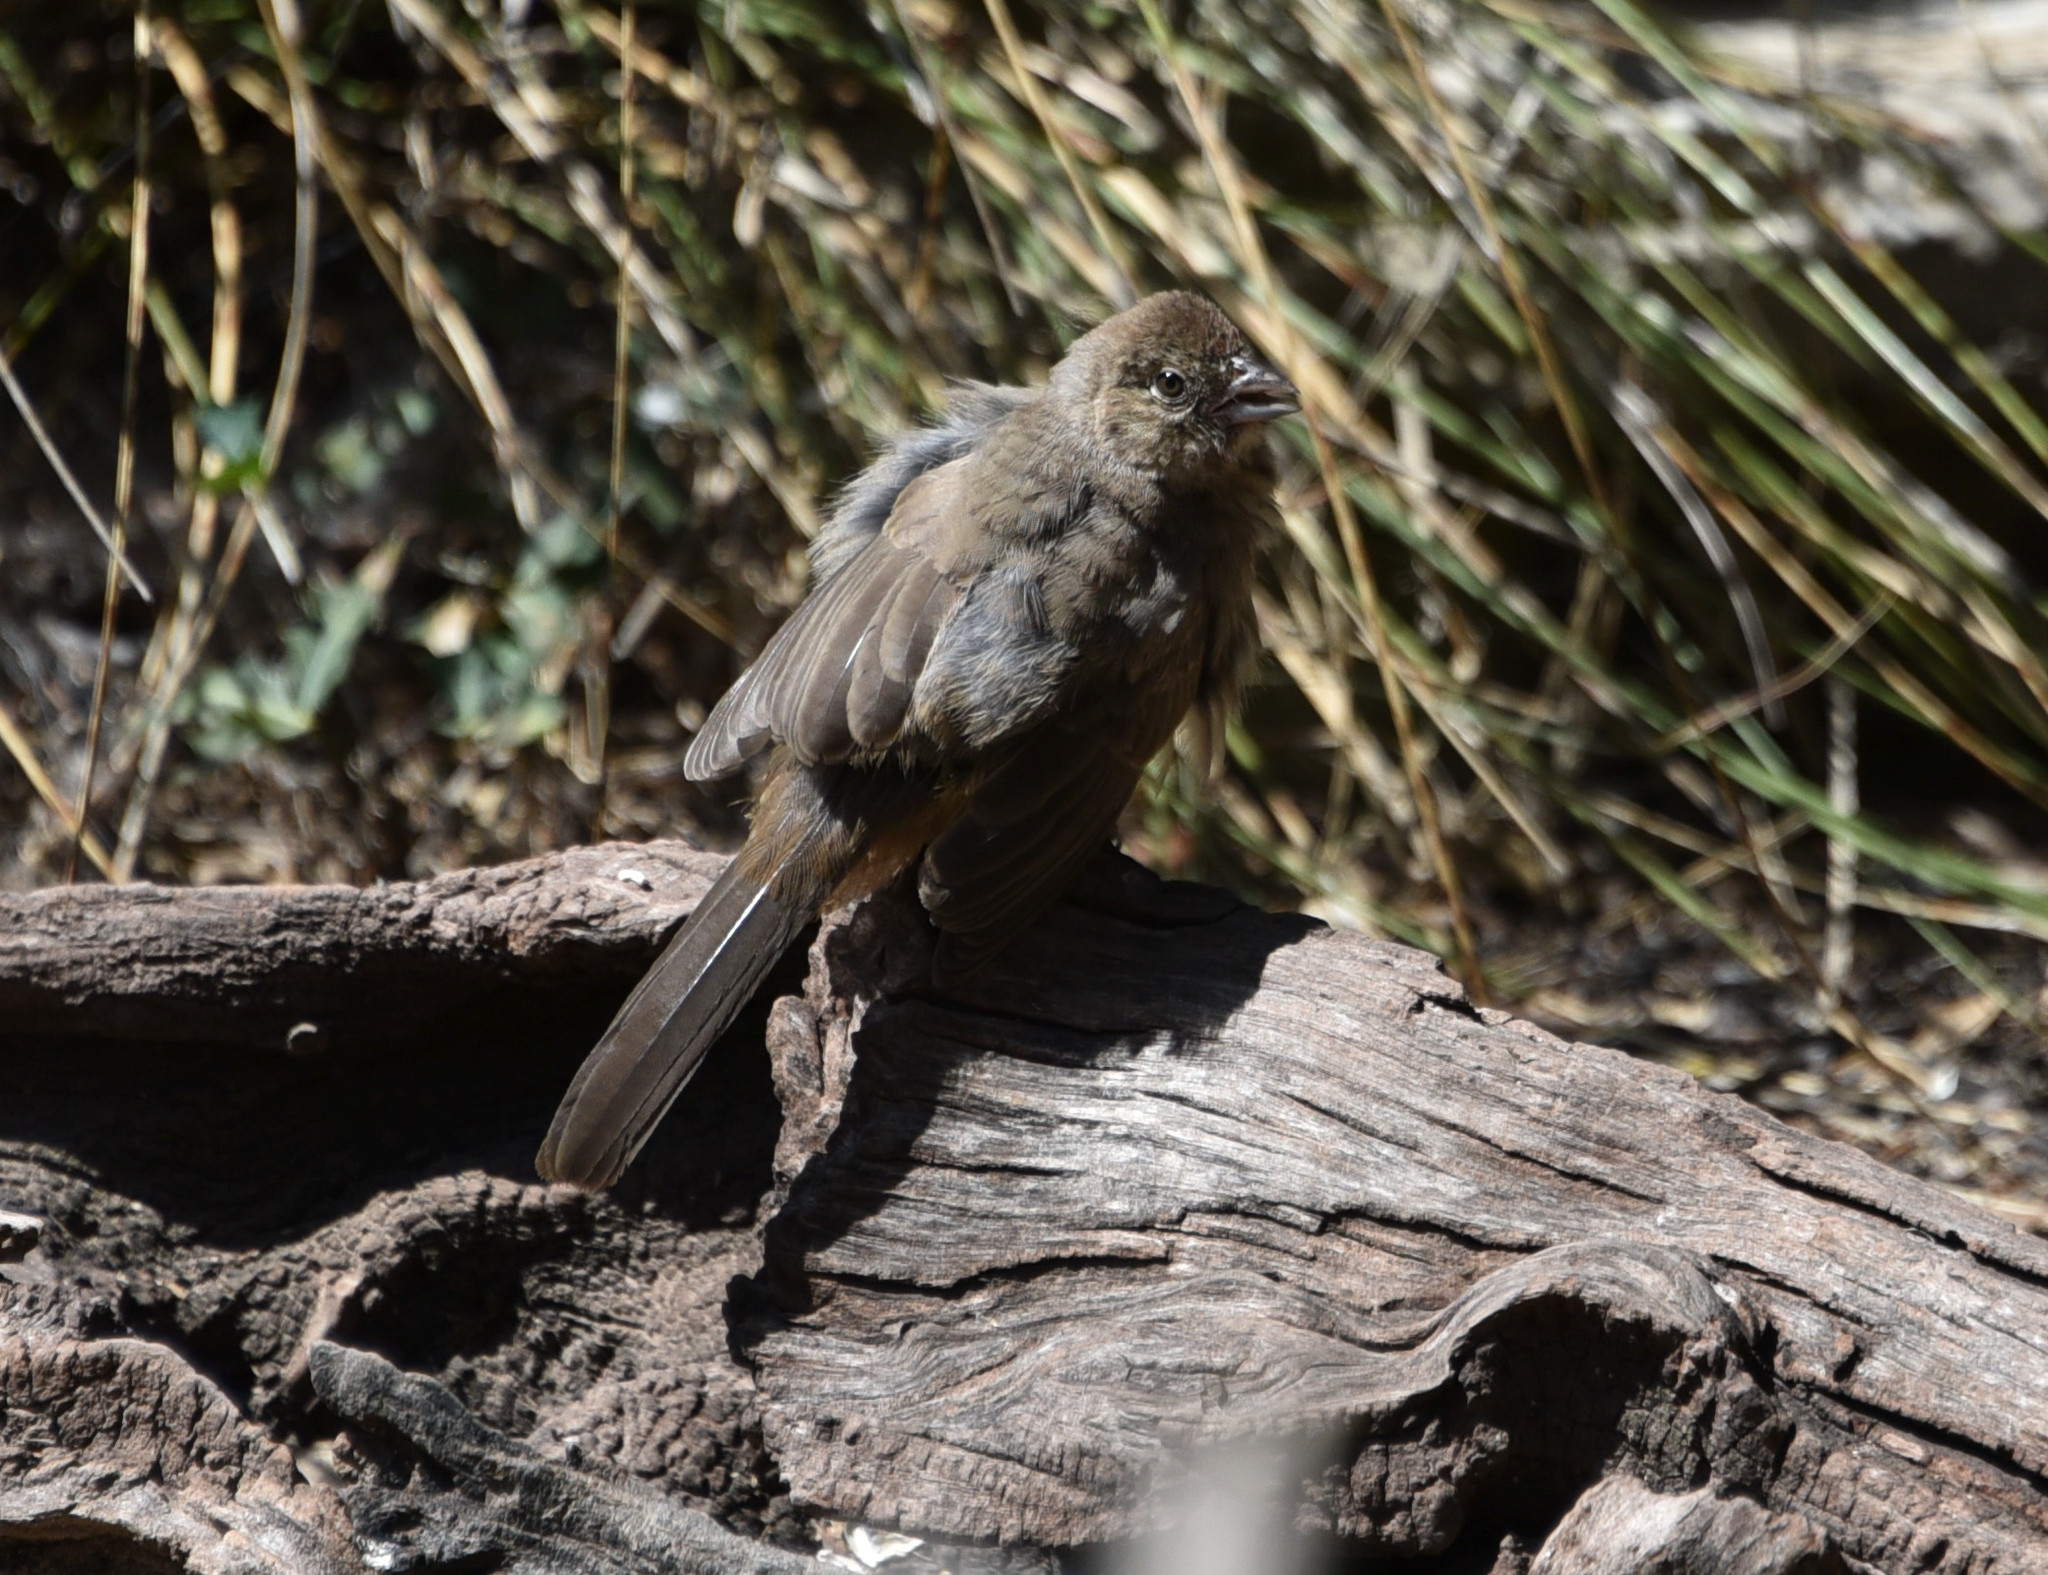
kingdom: Animalia
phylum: Chordata
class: Aves
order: Passeriformes
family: Passerellidae
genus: Melozone
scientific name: Melozone fusca
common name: Canyon towhee
